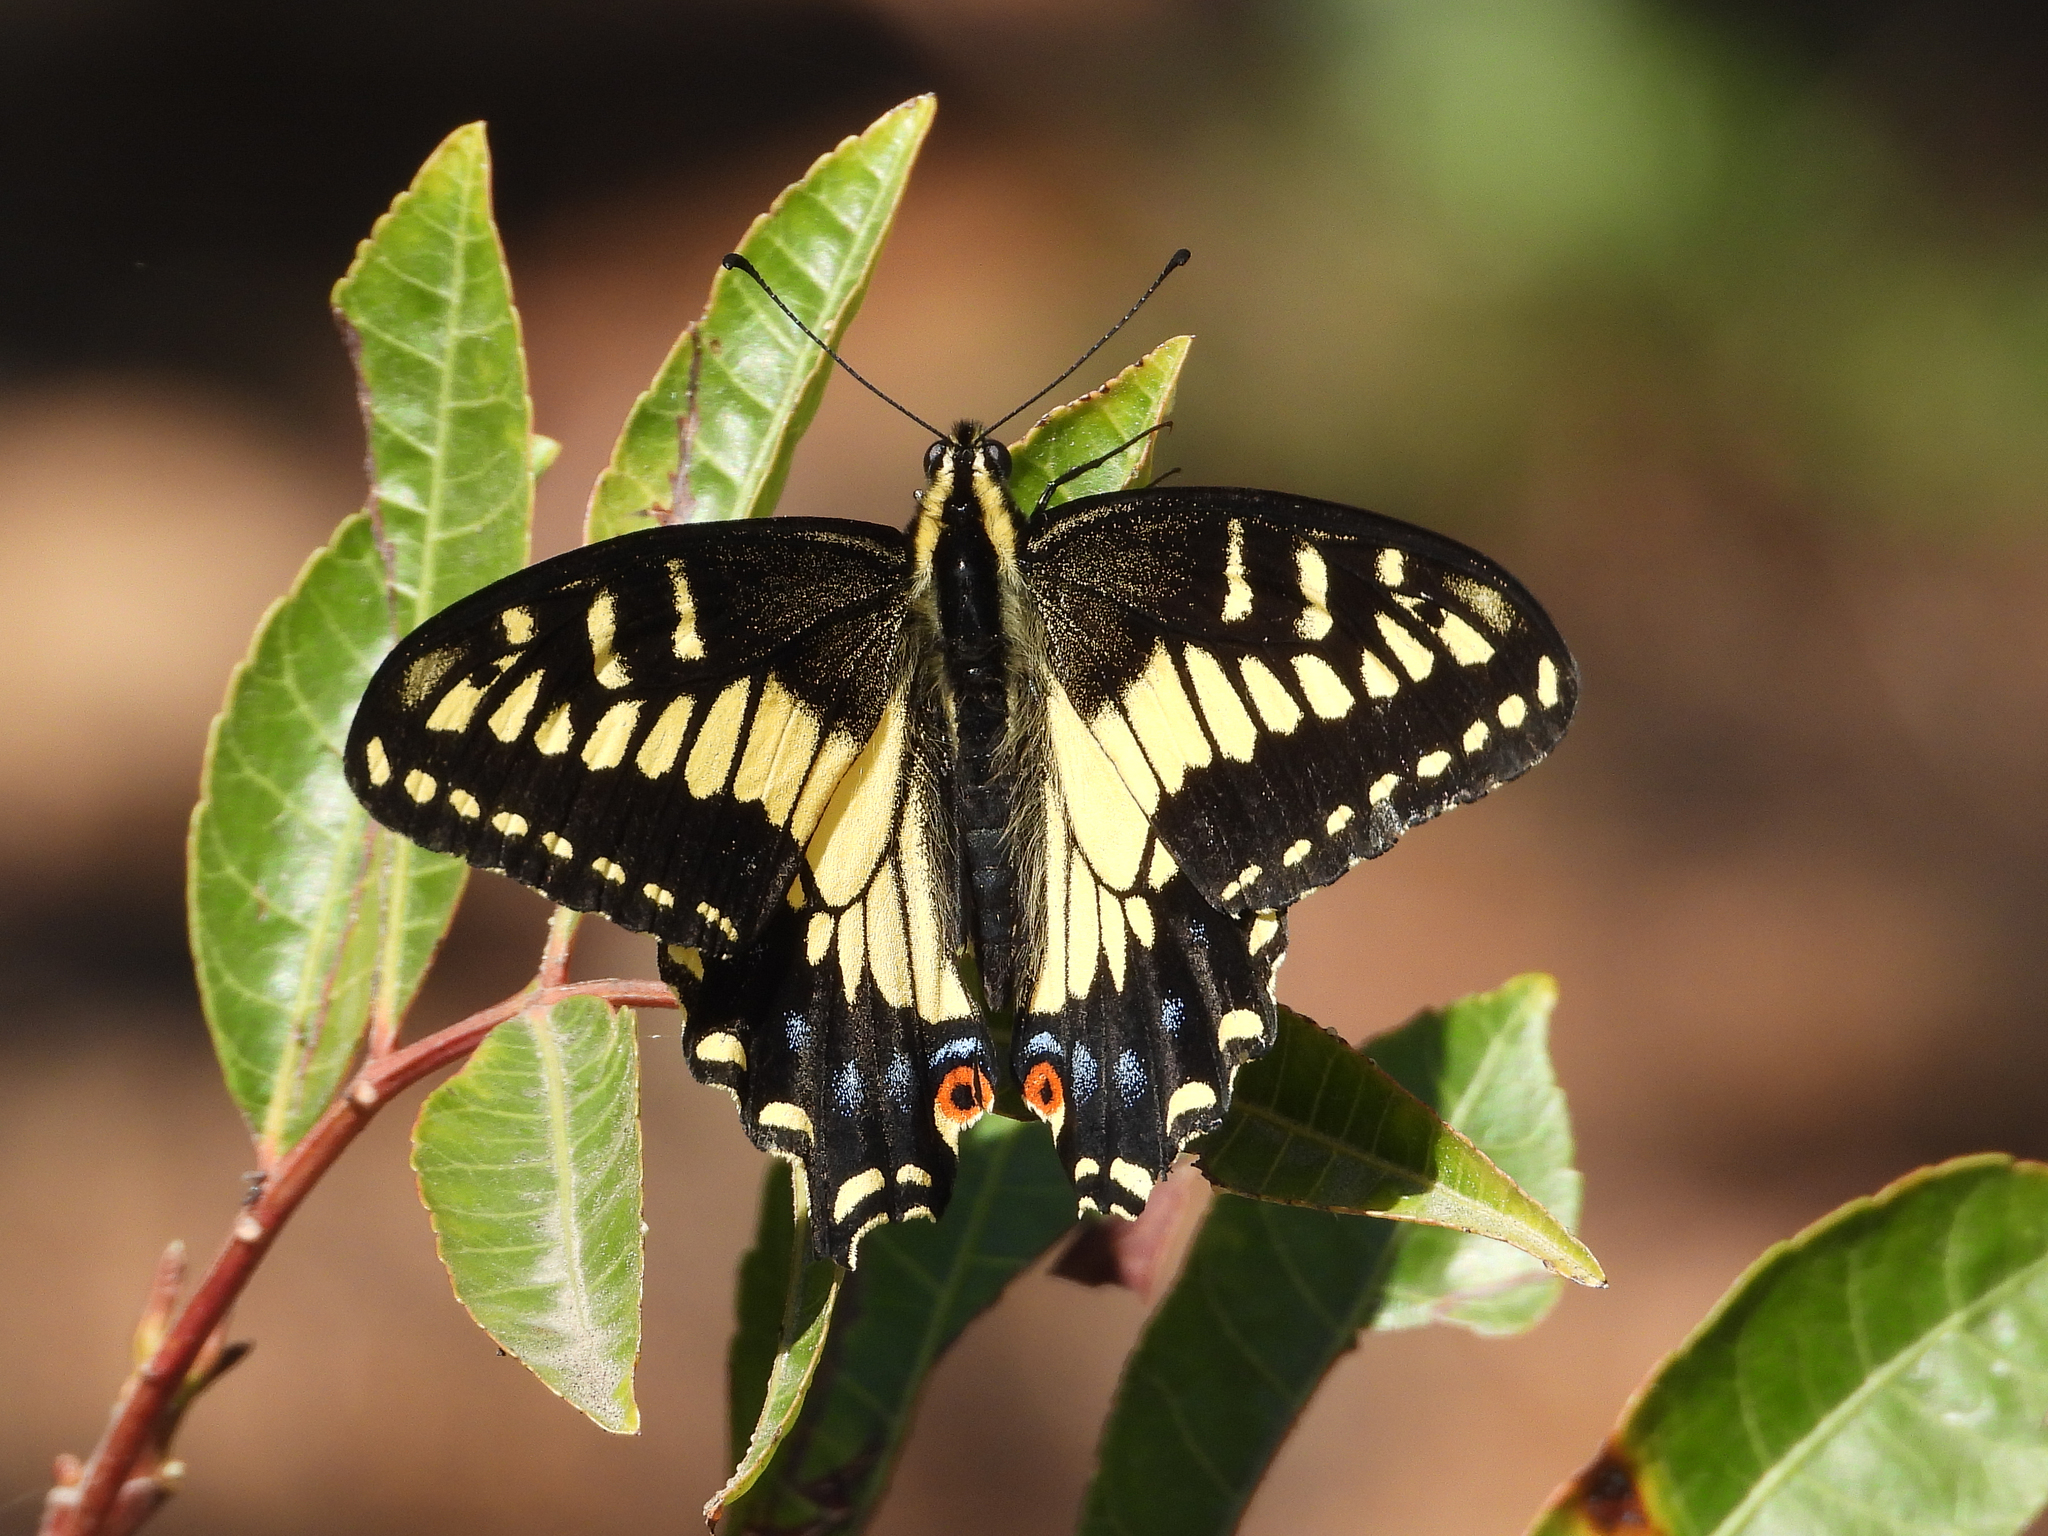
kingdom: Animalia
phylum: Arthropoda
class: Insecta
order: Lepidoptera
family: Papilionidae
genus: Papilio
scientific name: Papilio zelicaon
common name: Anise swallowtail
